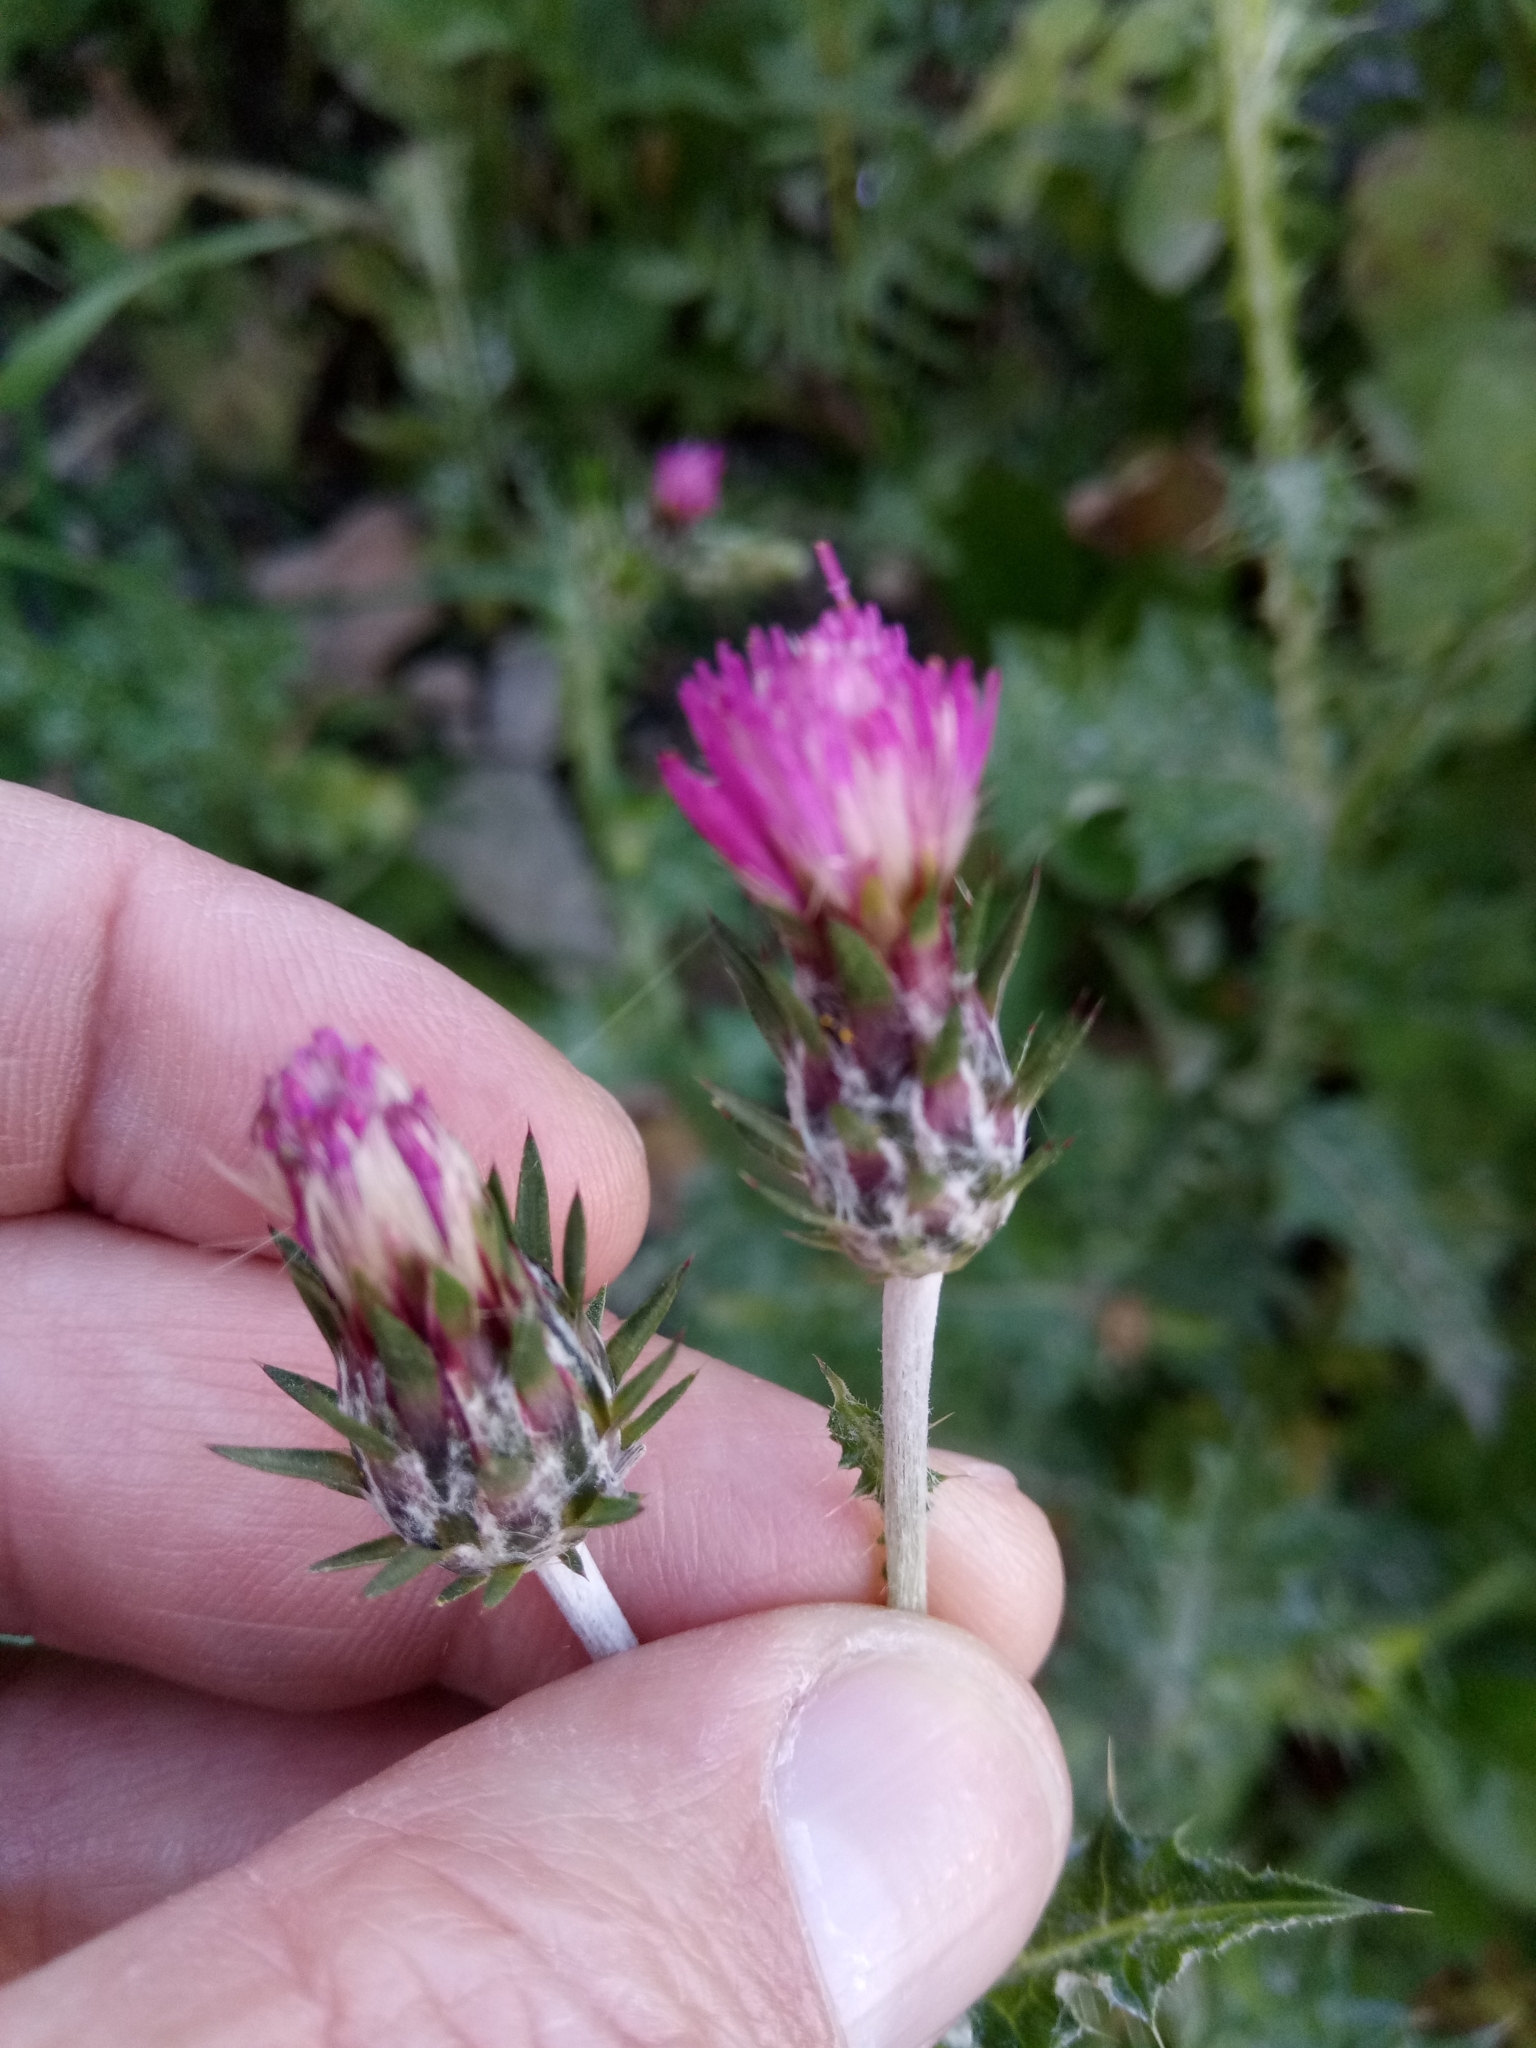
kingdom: Plantae
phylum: Tracheophyta
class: Magnoliopsida
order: Asterales
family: Asteraceae
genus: Carduus
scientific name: Carduus pycnocephalus
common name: Plymouth thistle
